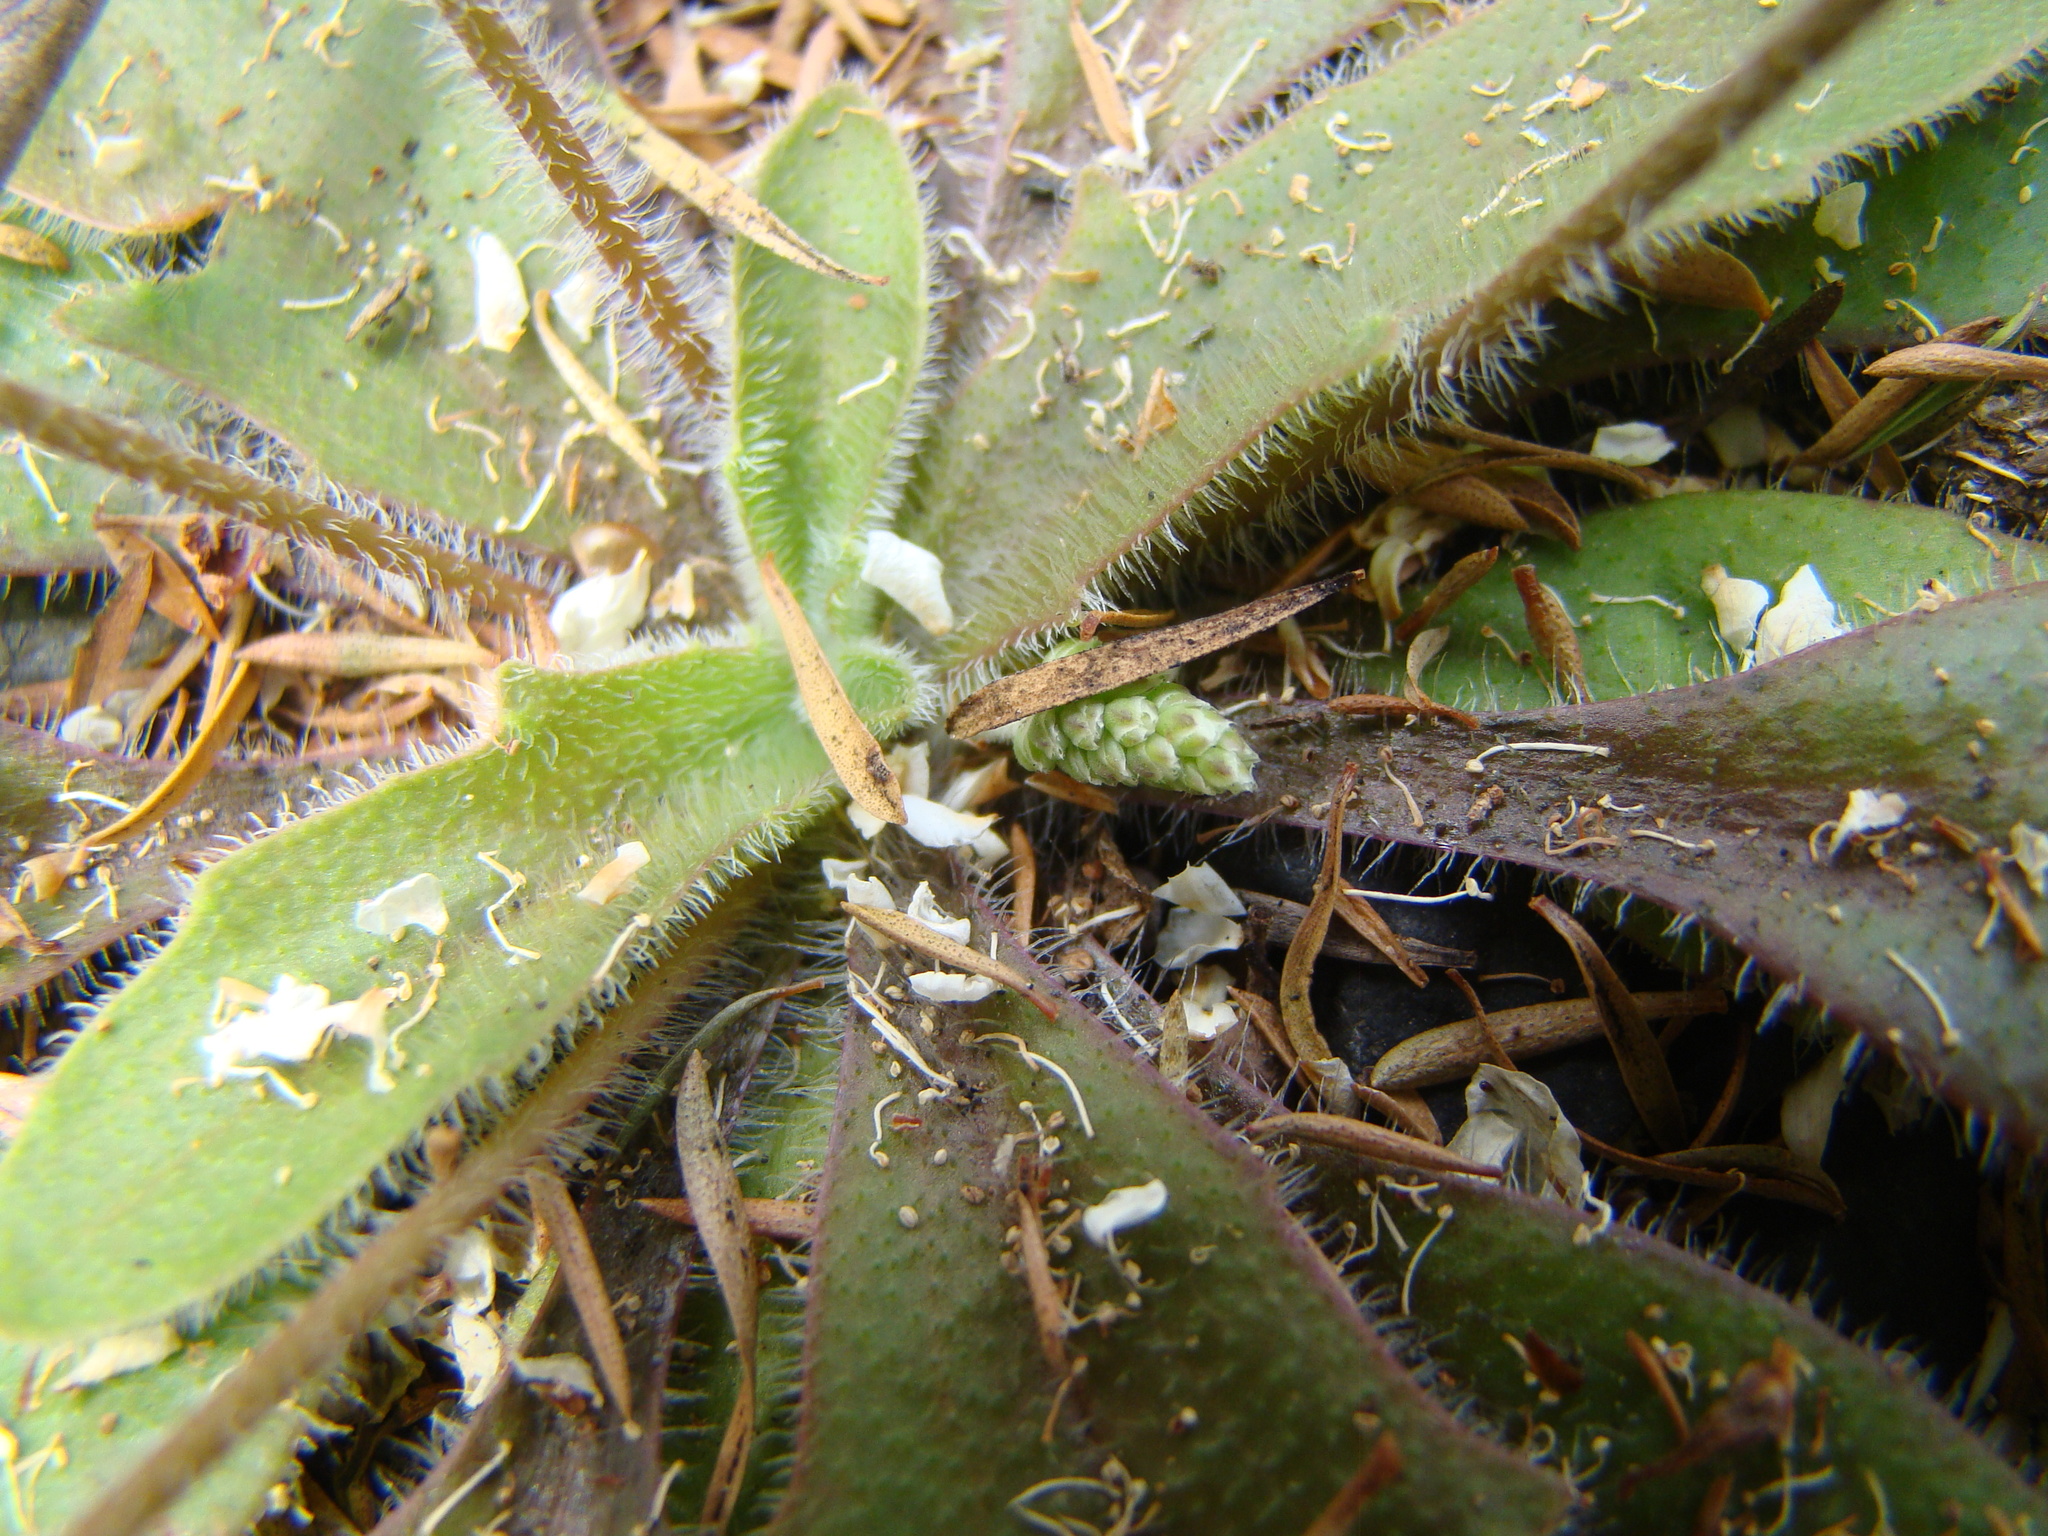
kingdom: Plantae
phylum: Tracheophyta
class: Magnoliopsida
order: Lamiales
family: Plantaginaceae
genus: Plantago
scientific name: Plantago raoulii
